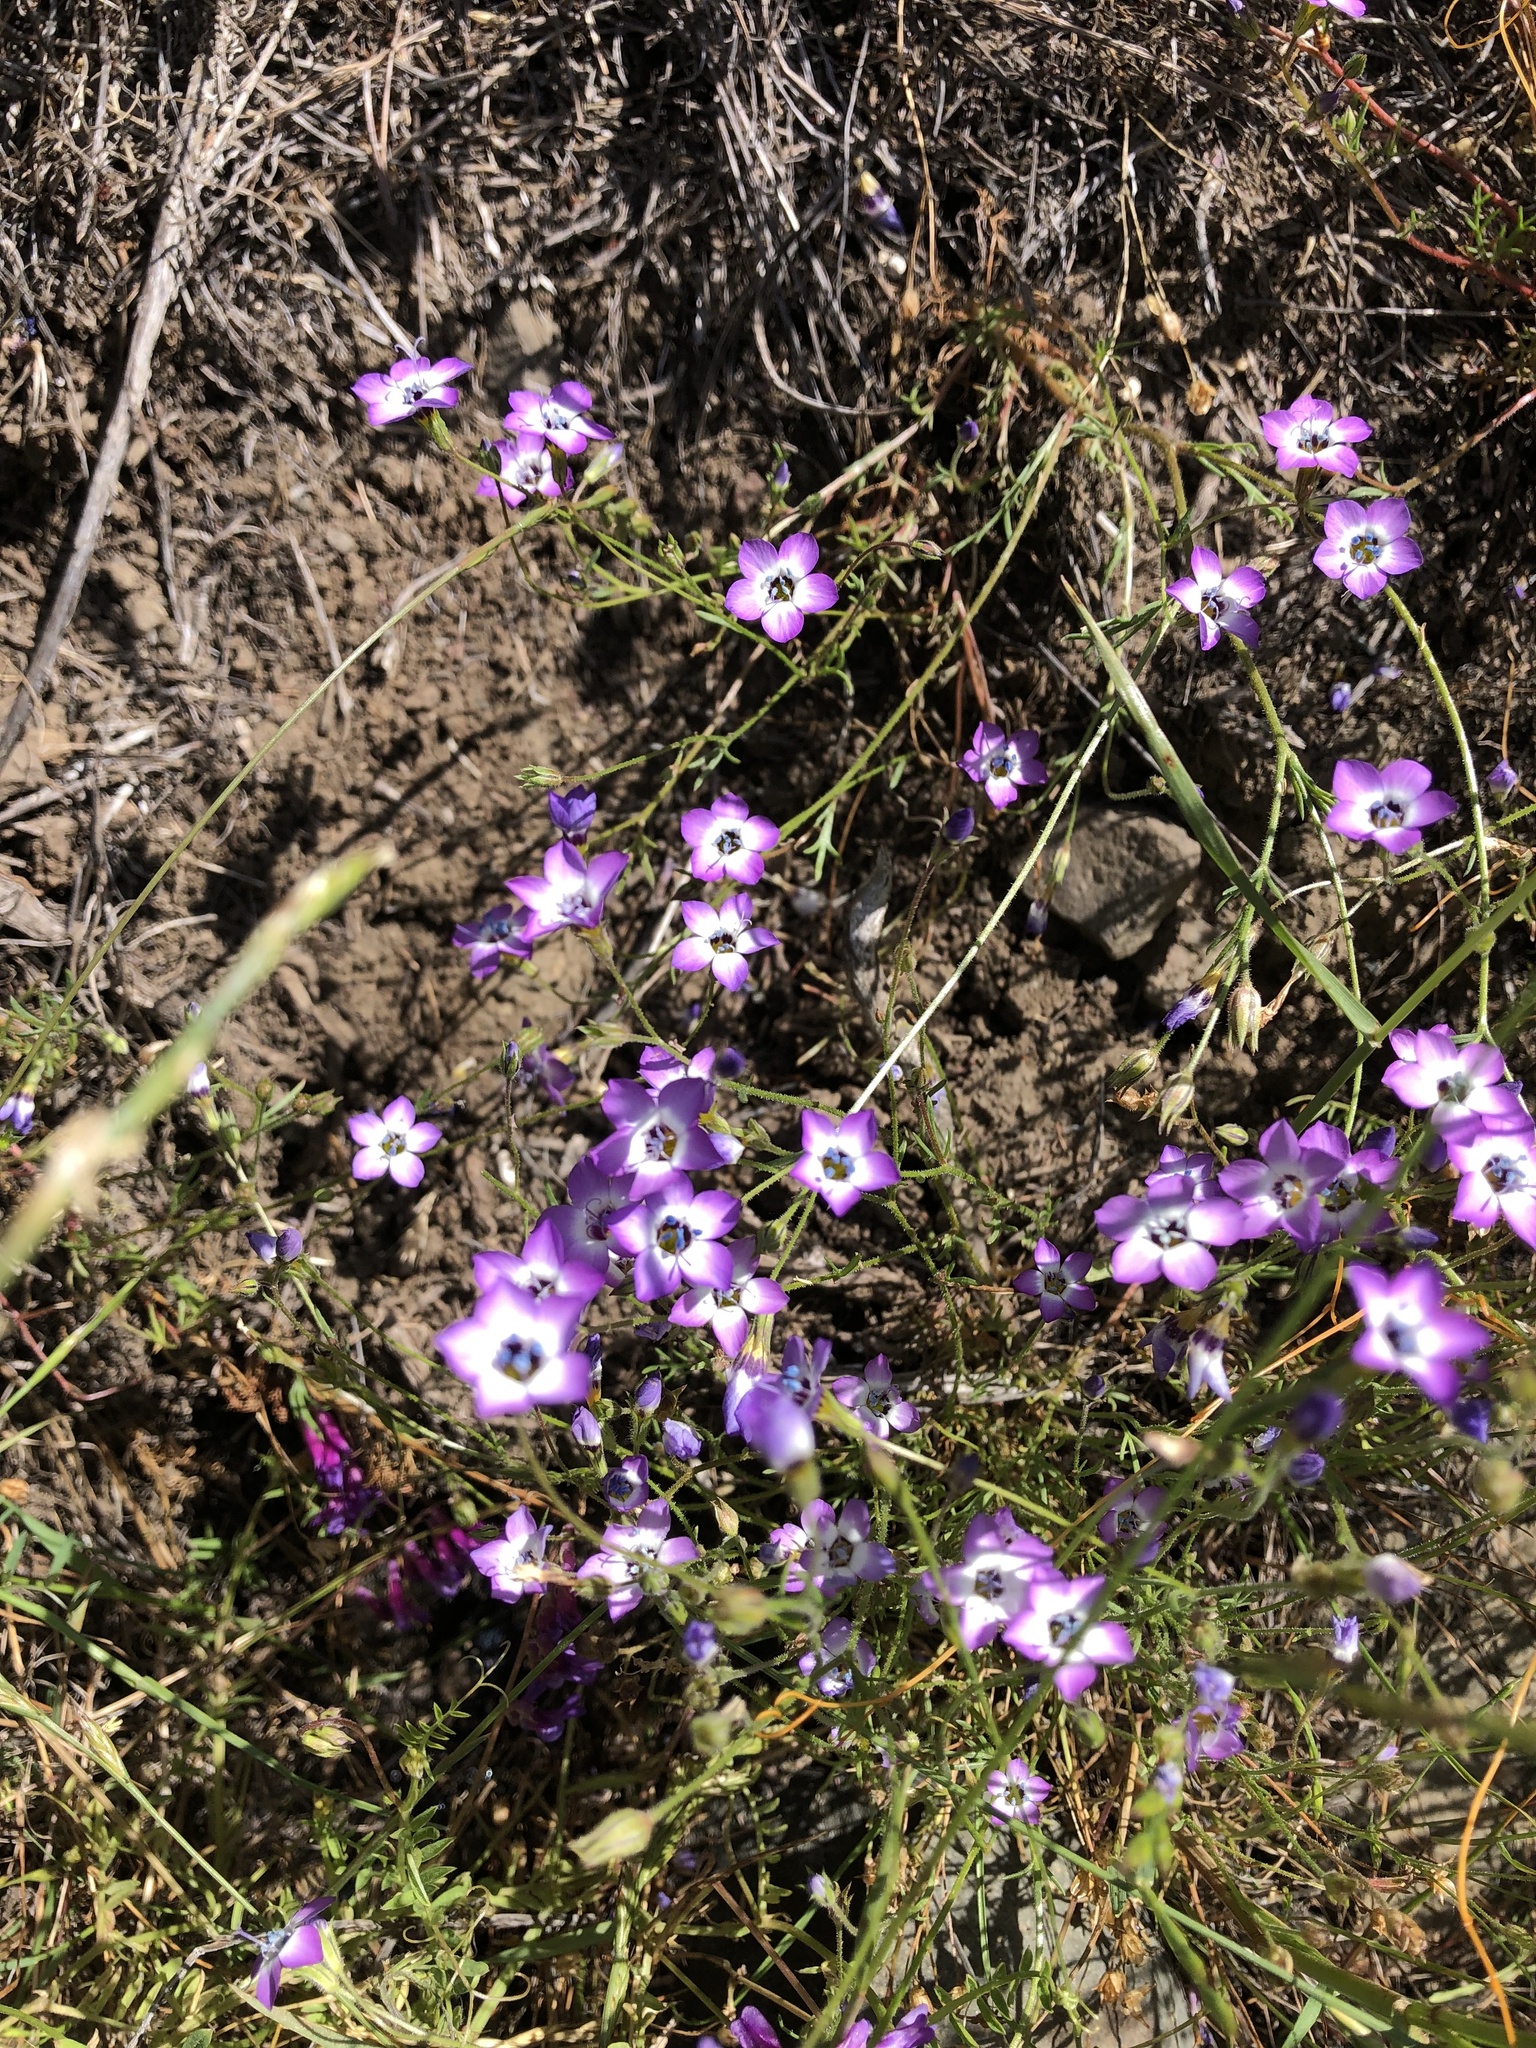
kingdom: Plantae
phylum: Tracheophyta
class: Magnoliopsida
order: Ericales
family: Polemoniaceae
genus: Gilia
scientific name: Gilia tricolor
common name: Bird's-eyes
